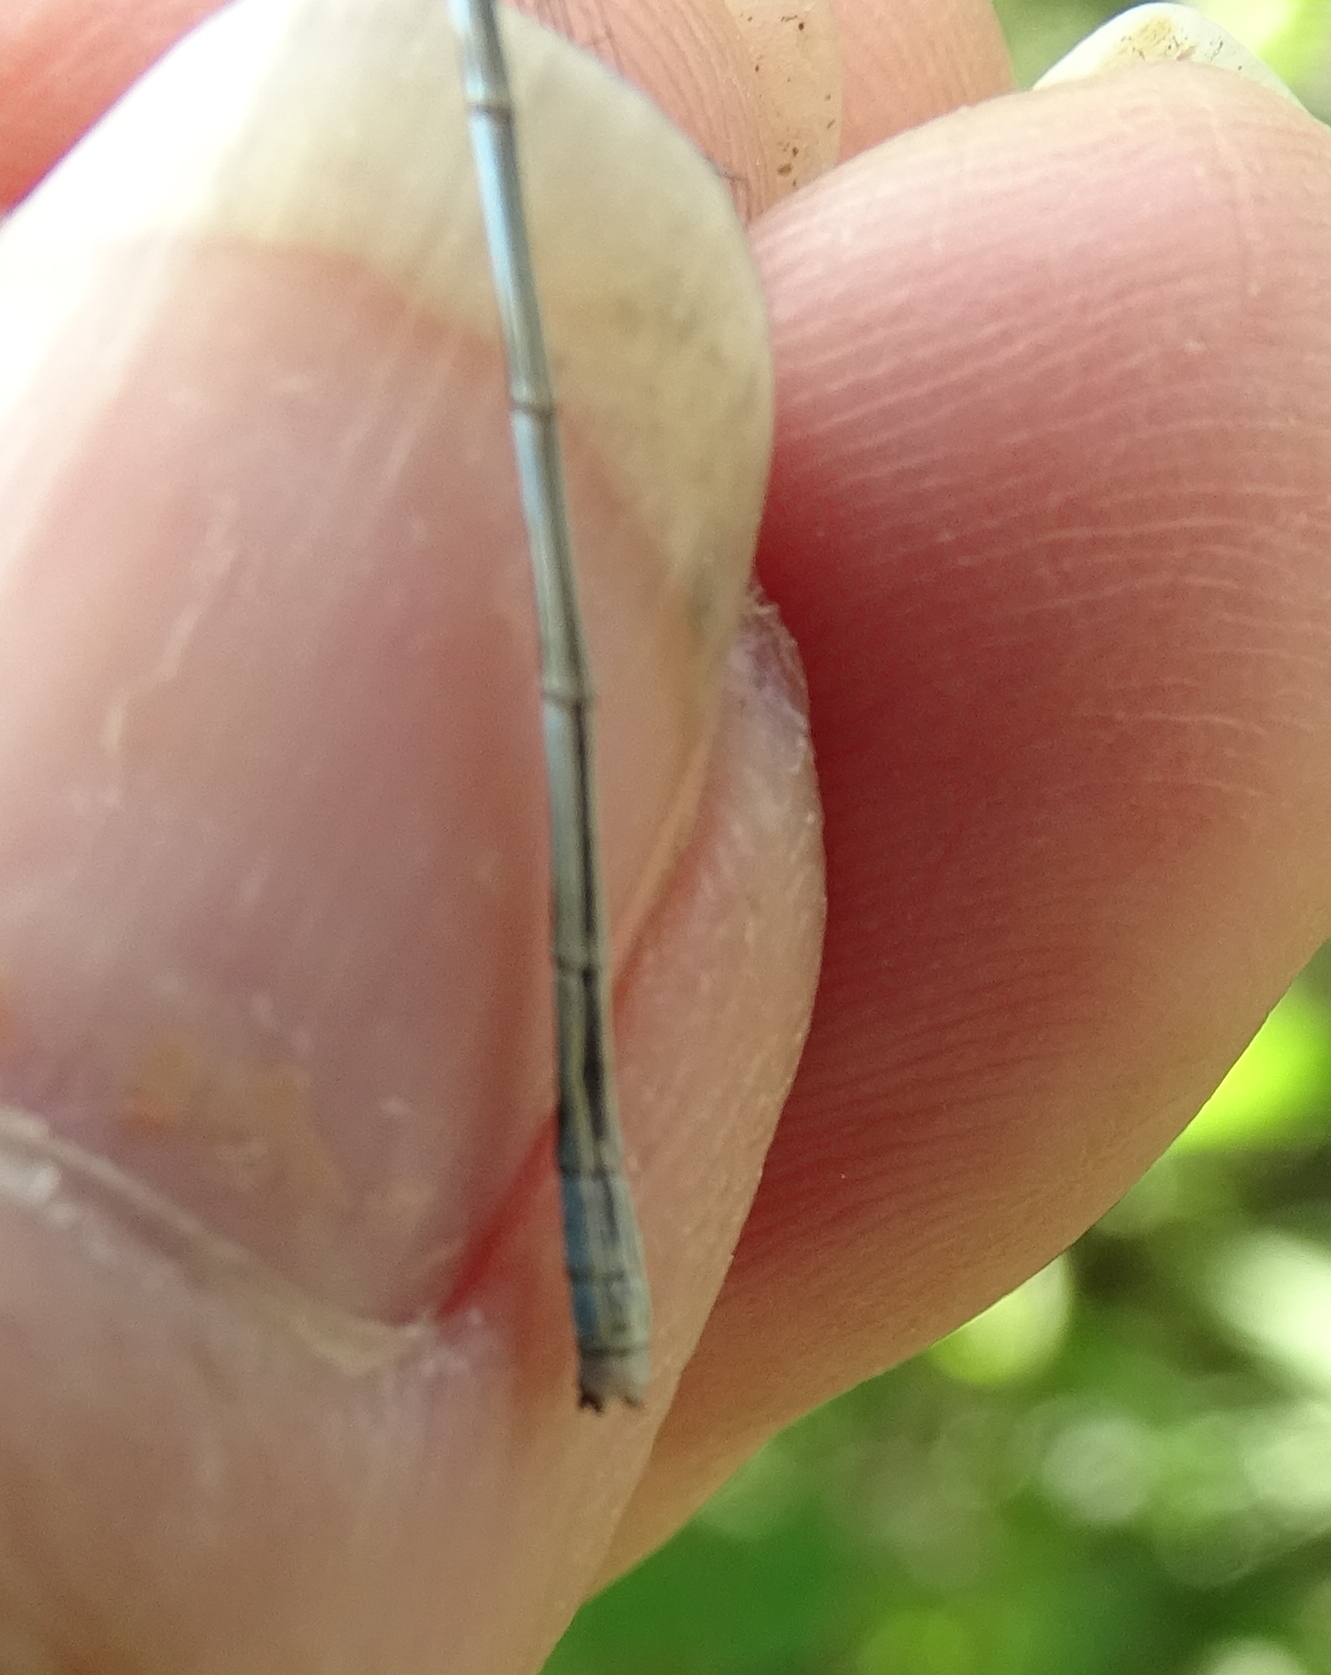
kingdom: Animalia
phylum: Arthropoda
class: Insecta
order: Odonata
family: Coenagrionidae
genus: Enallagma
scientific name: Enallagma ebrium
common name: Marsh bluet
